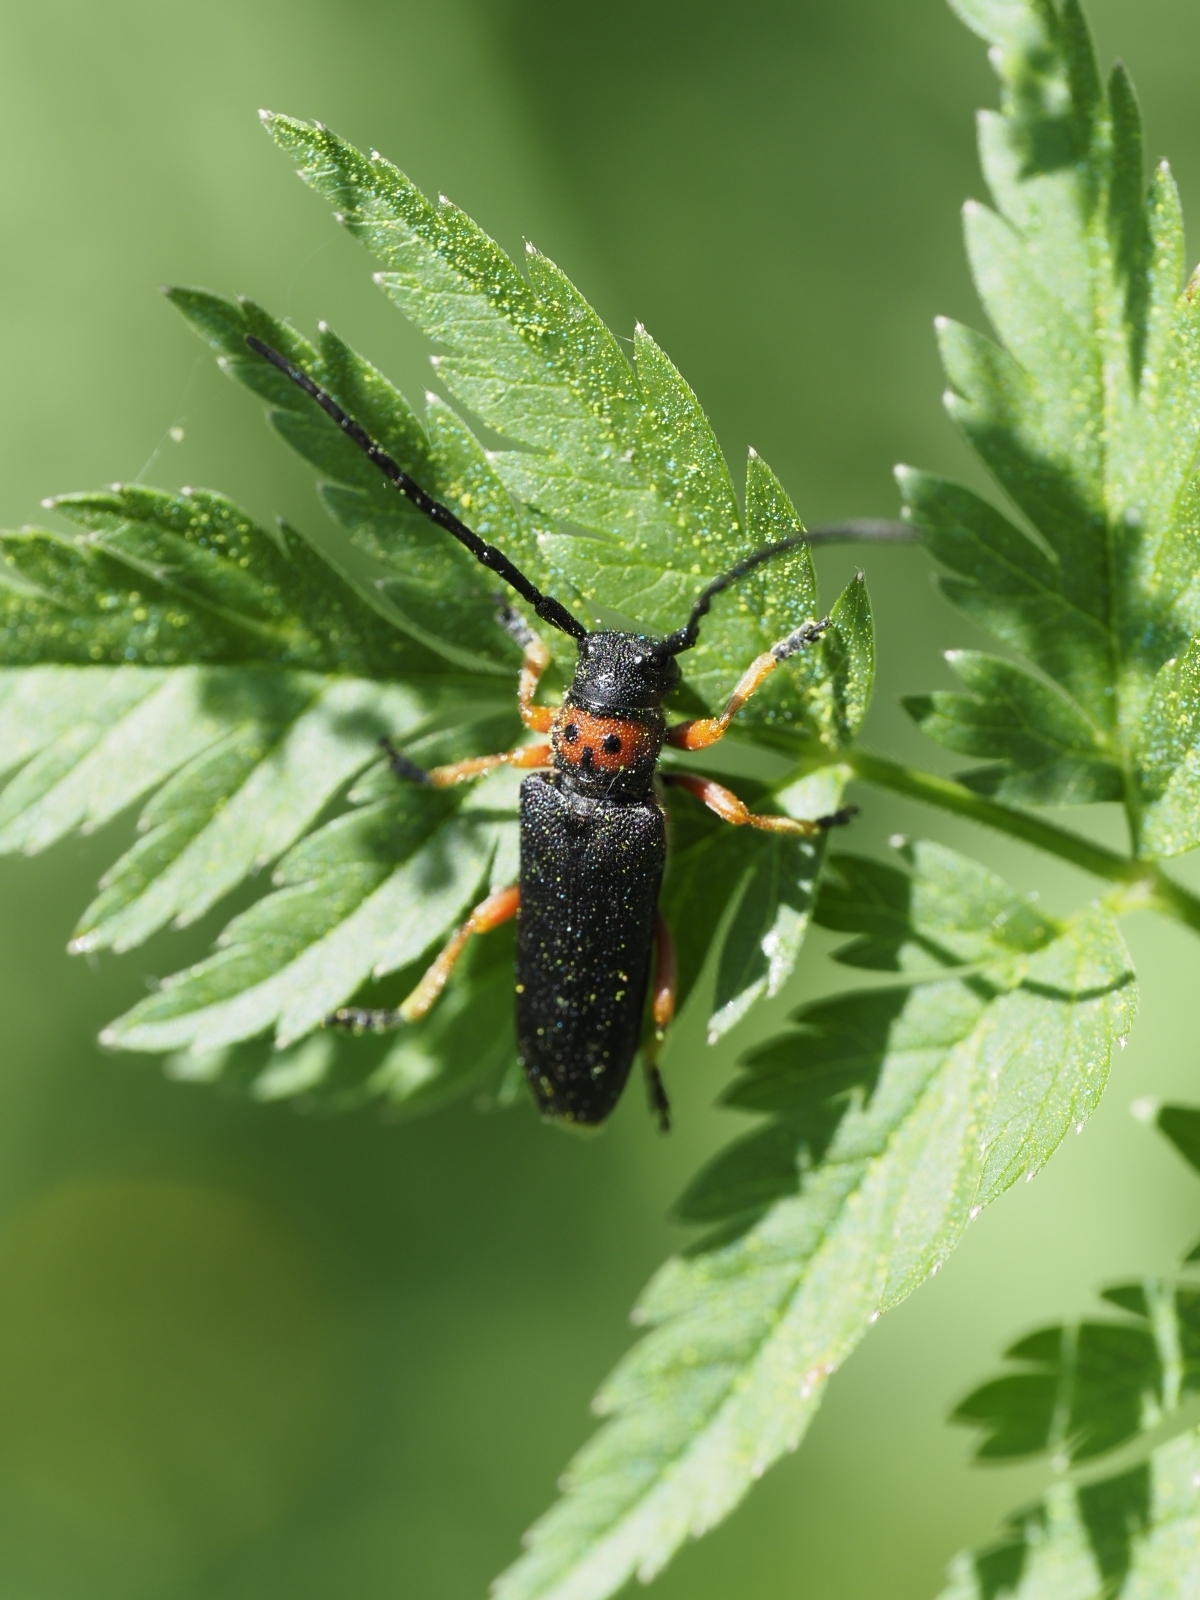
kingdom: Animalia
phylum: Arthropoda
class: Insecta
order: Coleoptera
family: Cerambycidae
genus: Phytoecia
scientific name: Phytoecia affinis
